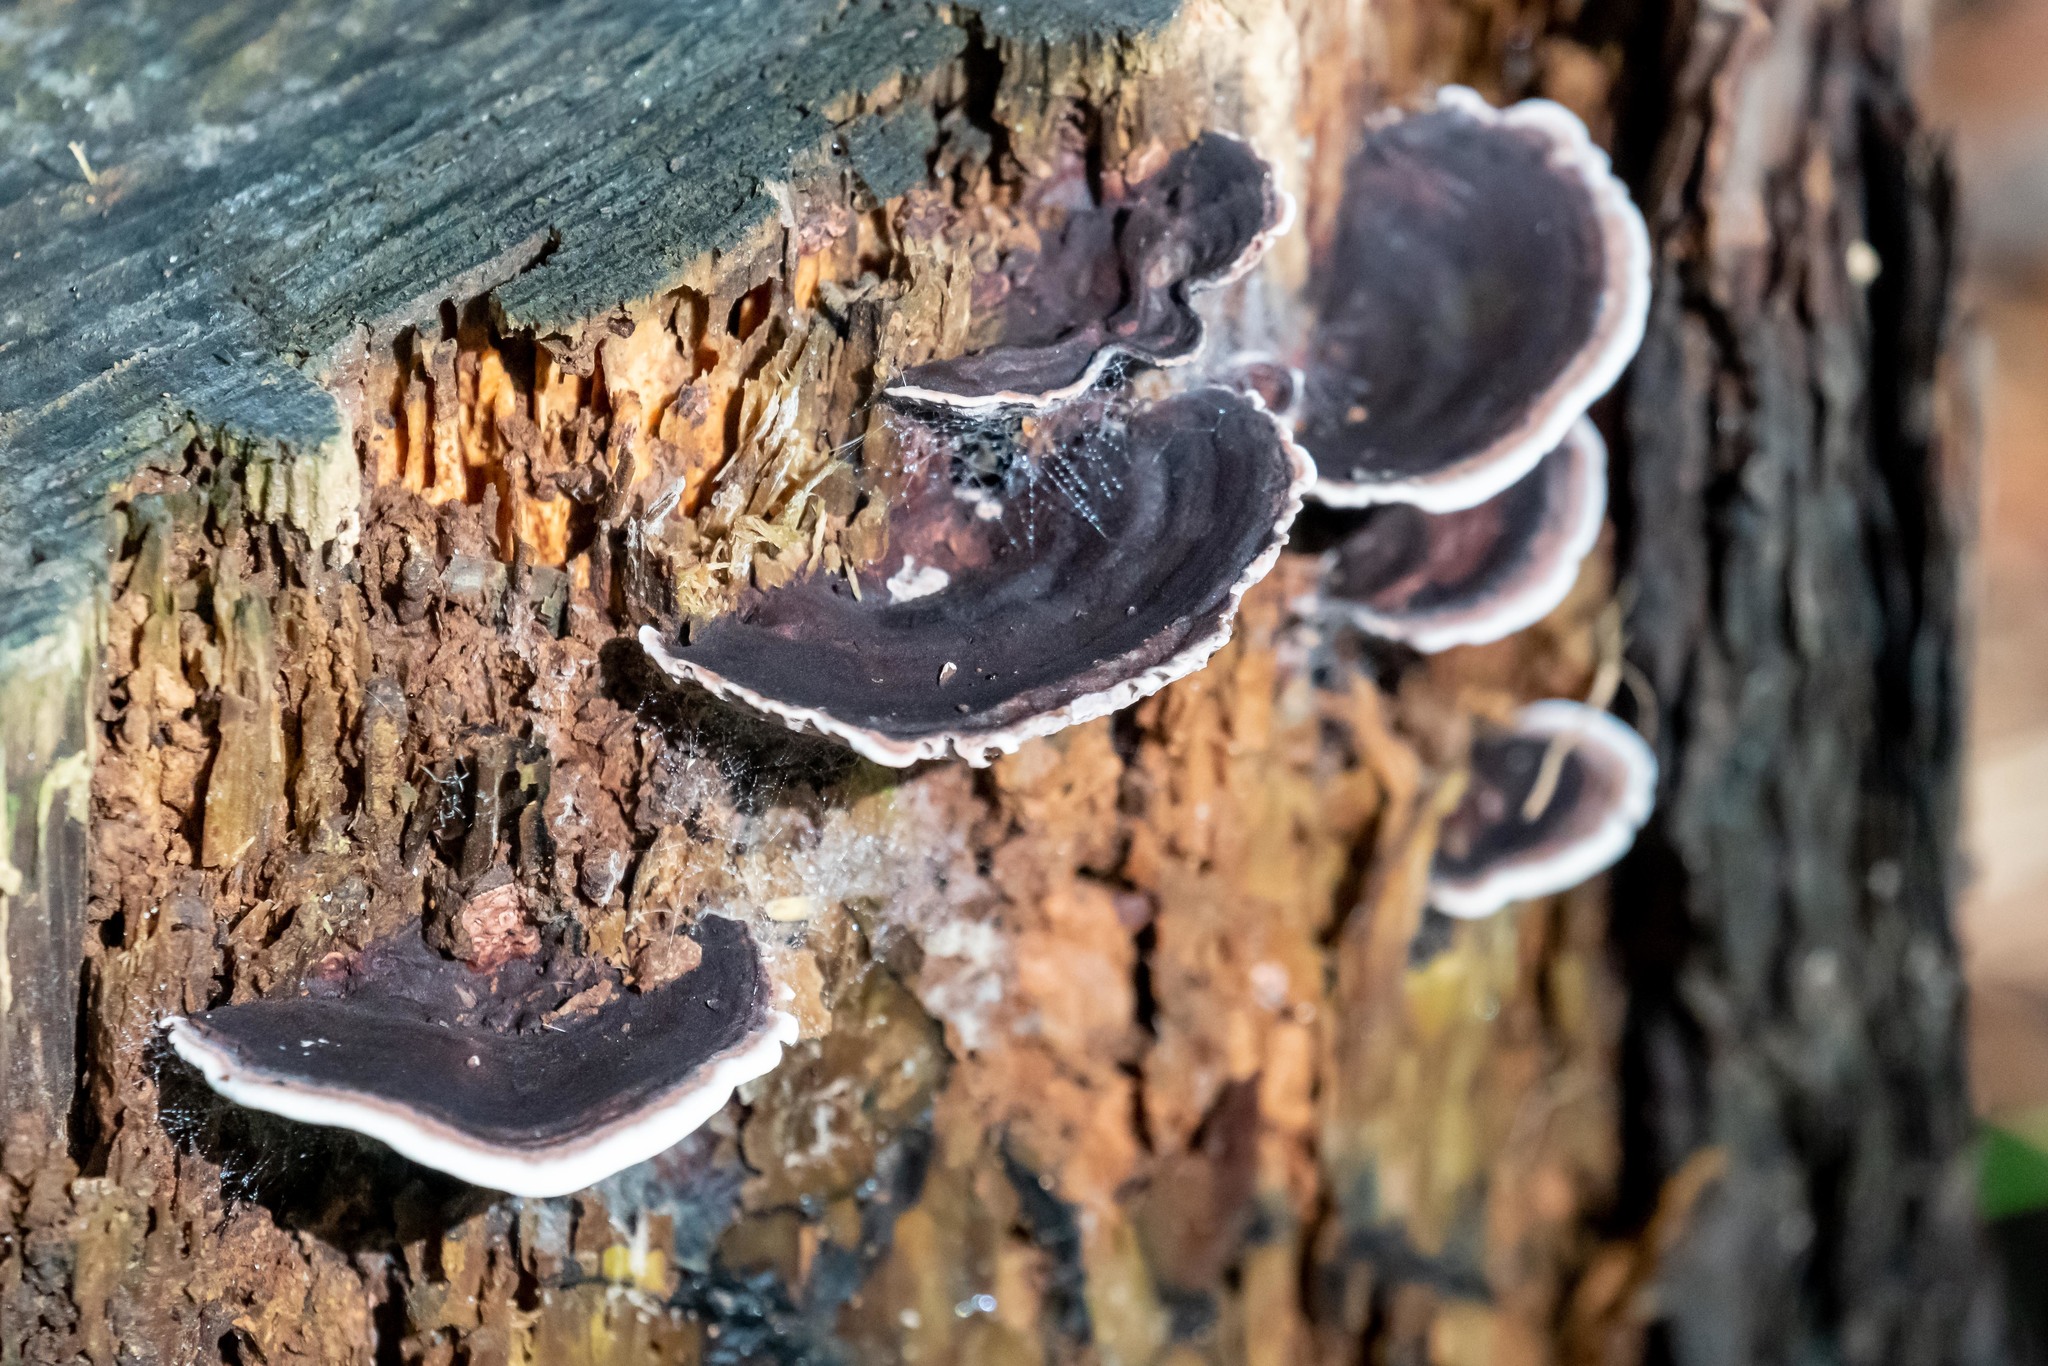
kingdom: Fungi
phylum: Basidiomycota
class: Agaricomycetes
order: Polyporales
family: Steccherinaceae
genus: Nigroporus
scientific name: Nigroporus vinosus
